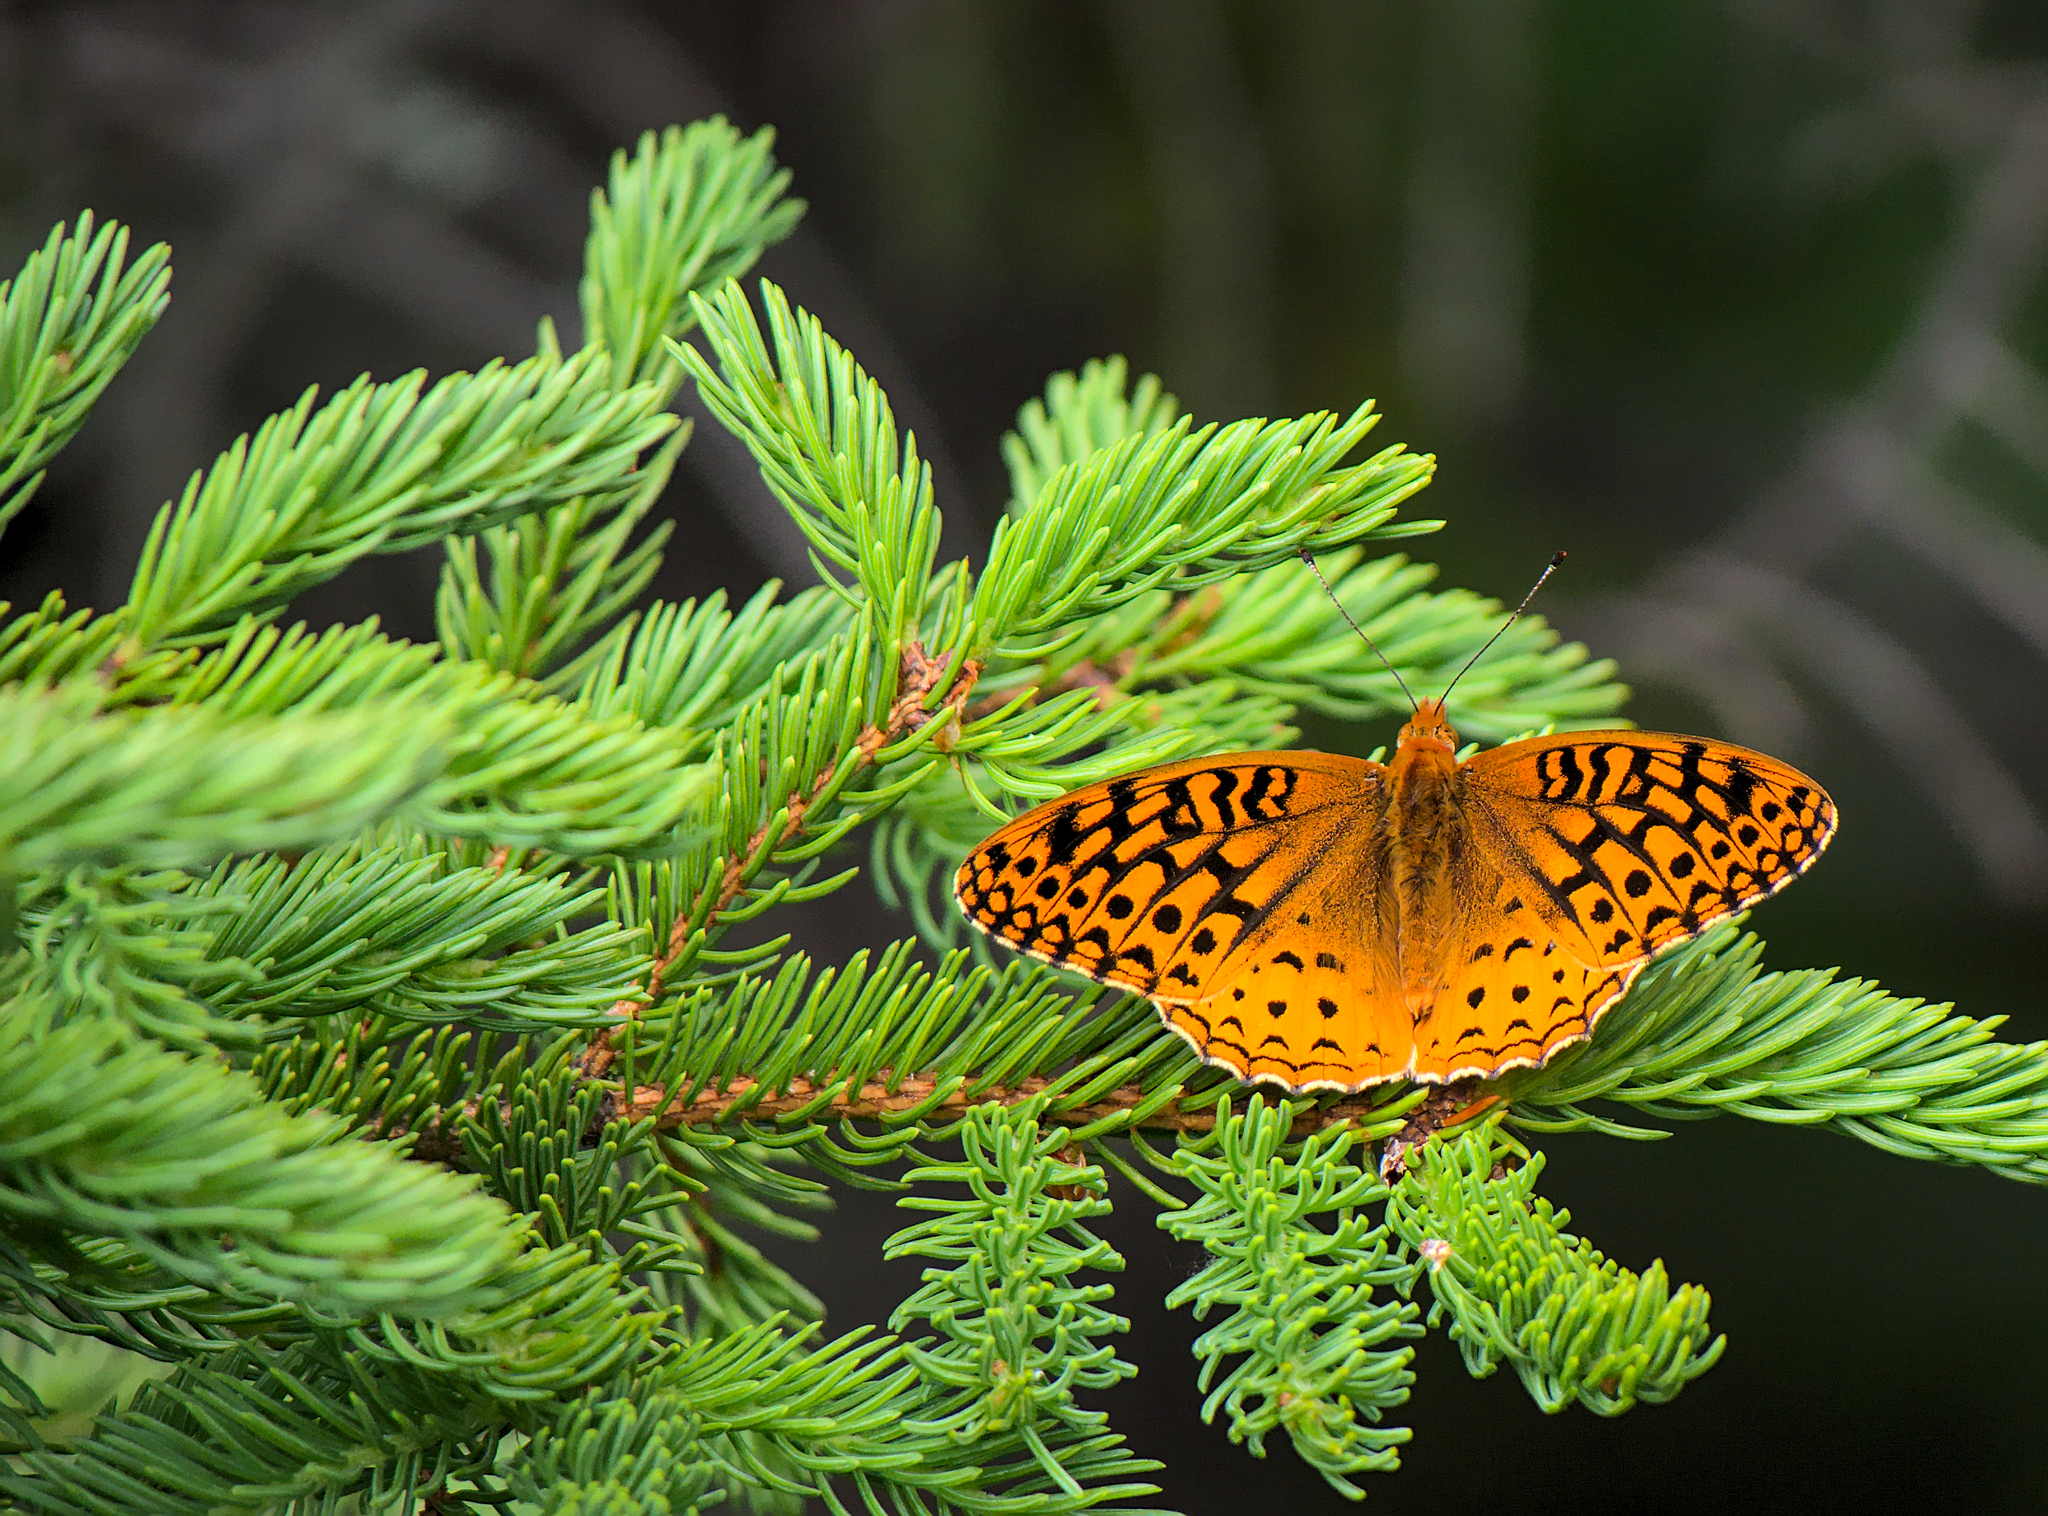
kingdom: Animalia
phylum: Arthropoda
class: Insecta
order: Lepidoptera
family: Nymphalidae
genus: Speyeria
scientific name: Speyeria cybele
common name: Great spangled fritillary
